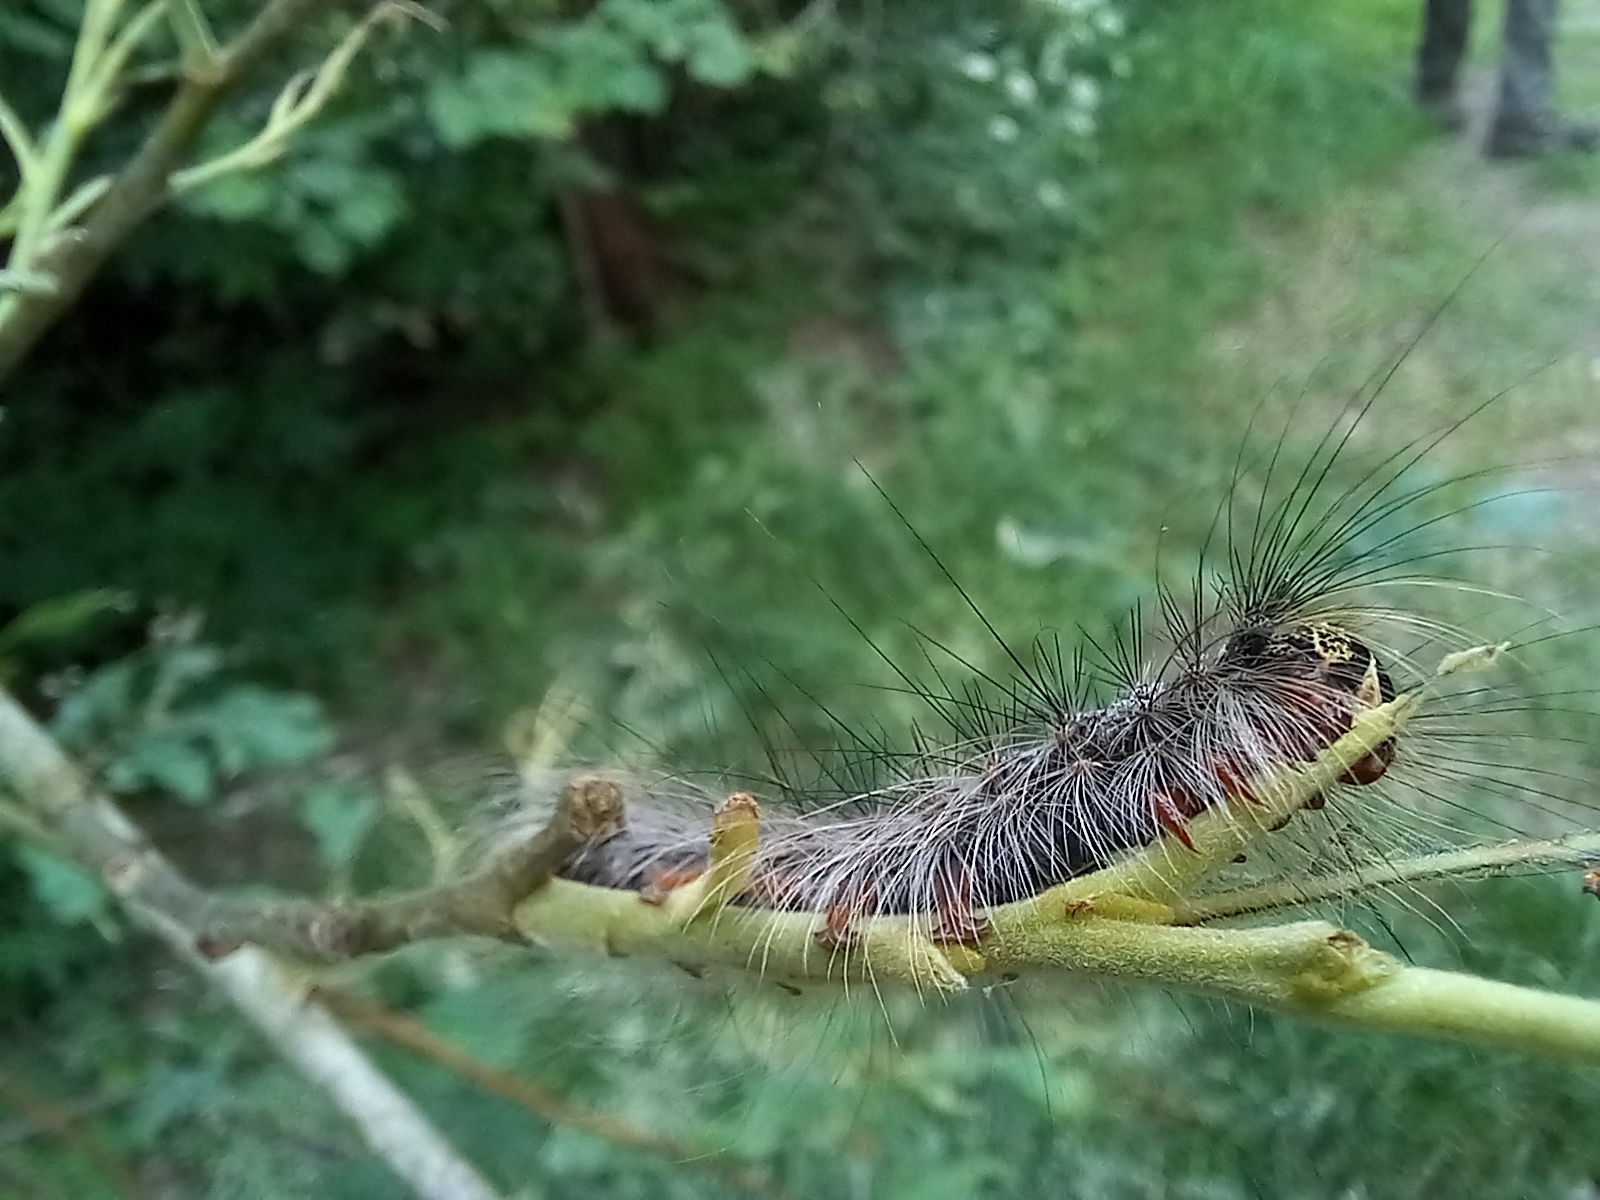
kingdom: Animalia
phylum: Arthropoda
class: Insecta
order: Lepidoptera
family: Erebidae
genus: Lymantria
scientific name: Lymantria dispar
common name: Gypsy moth
